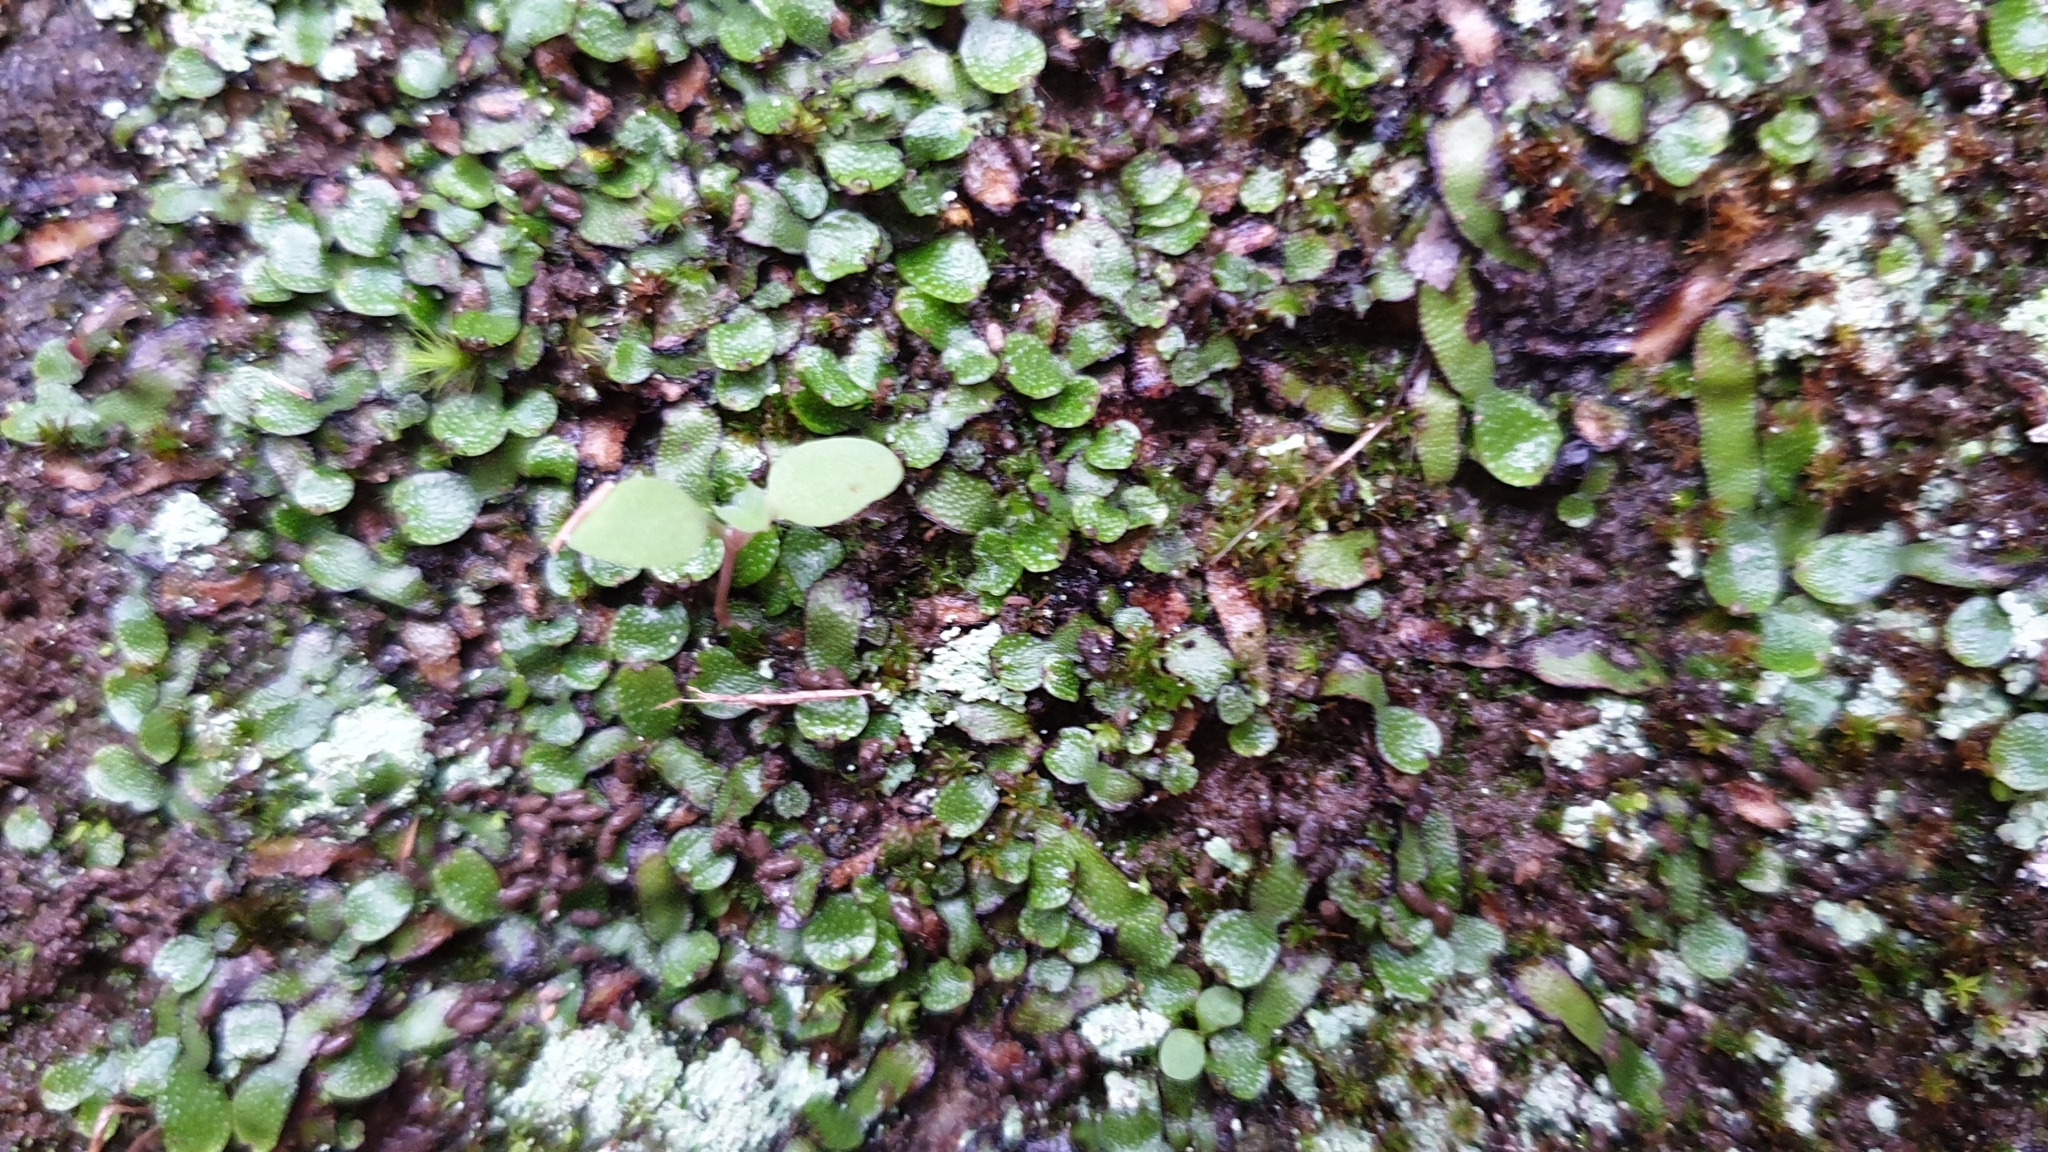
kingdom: Plantae
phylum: Marchantiophyta
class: Marchantiopsida
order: Marchantiales
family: Targioniaceae
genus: Targionia
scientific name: Targionia hypophylla
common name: Orobus-seed liverwort
